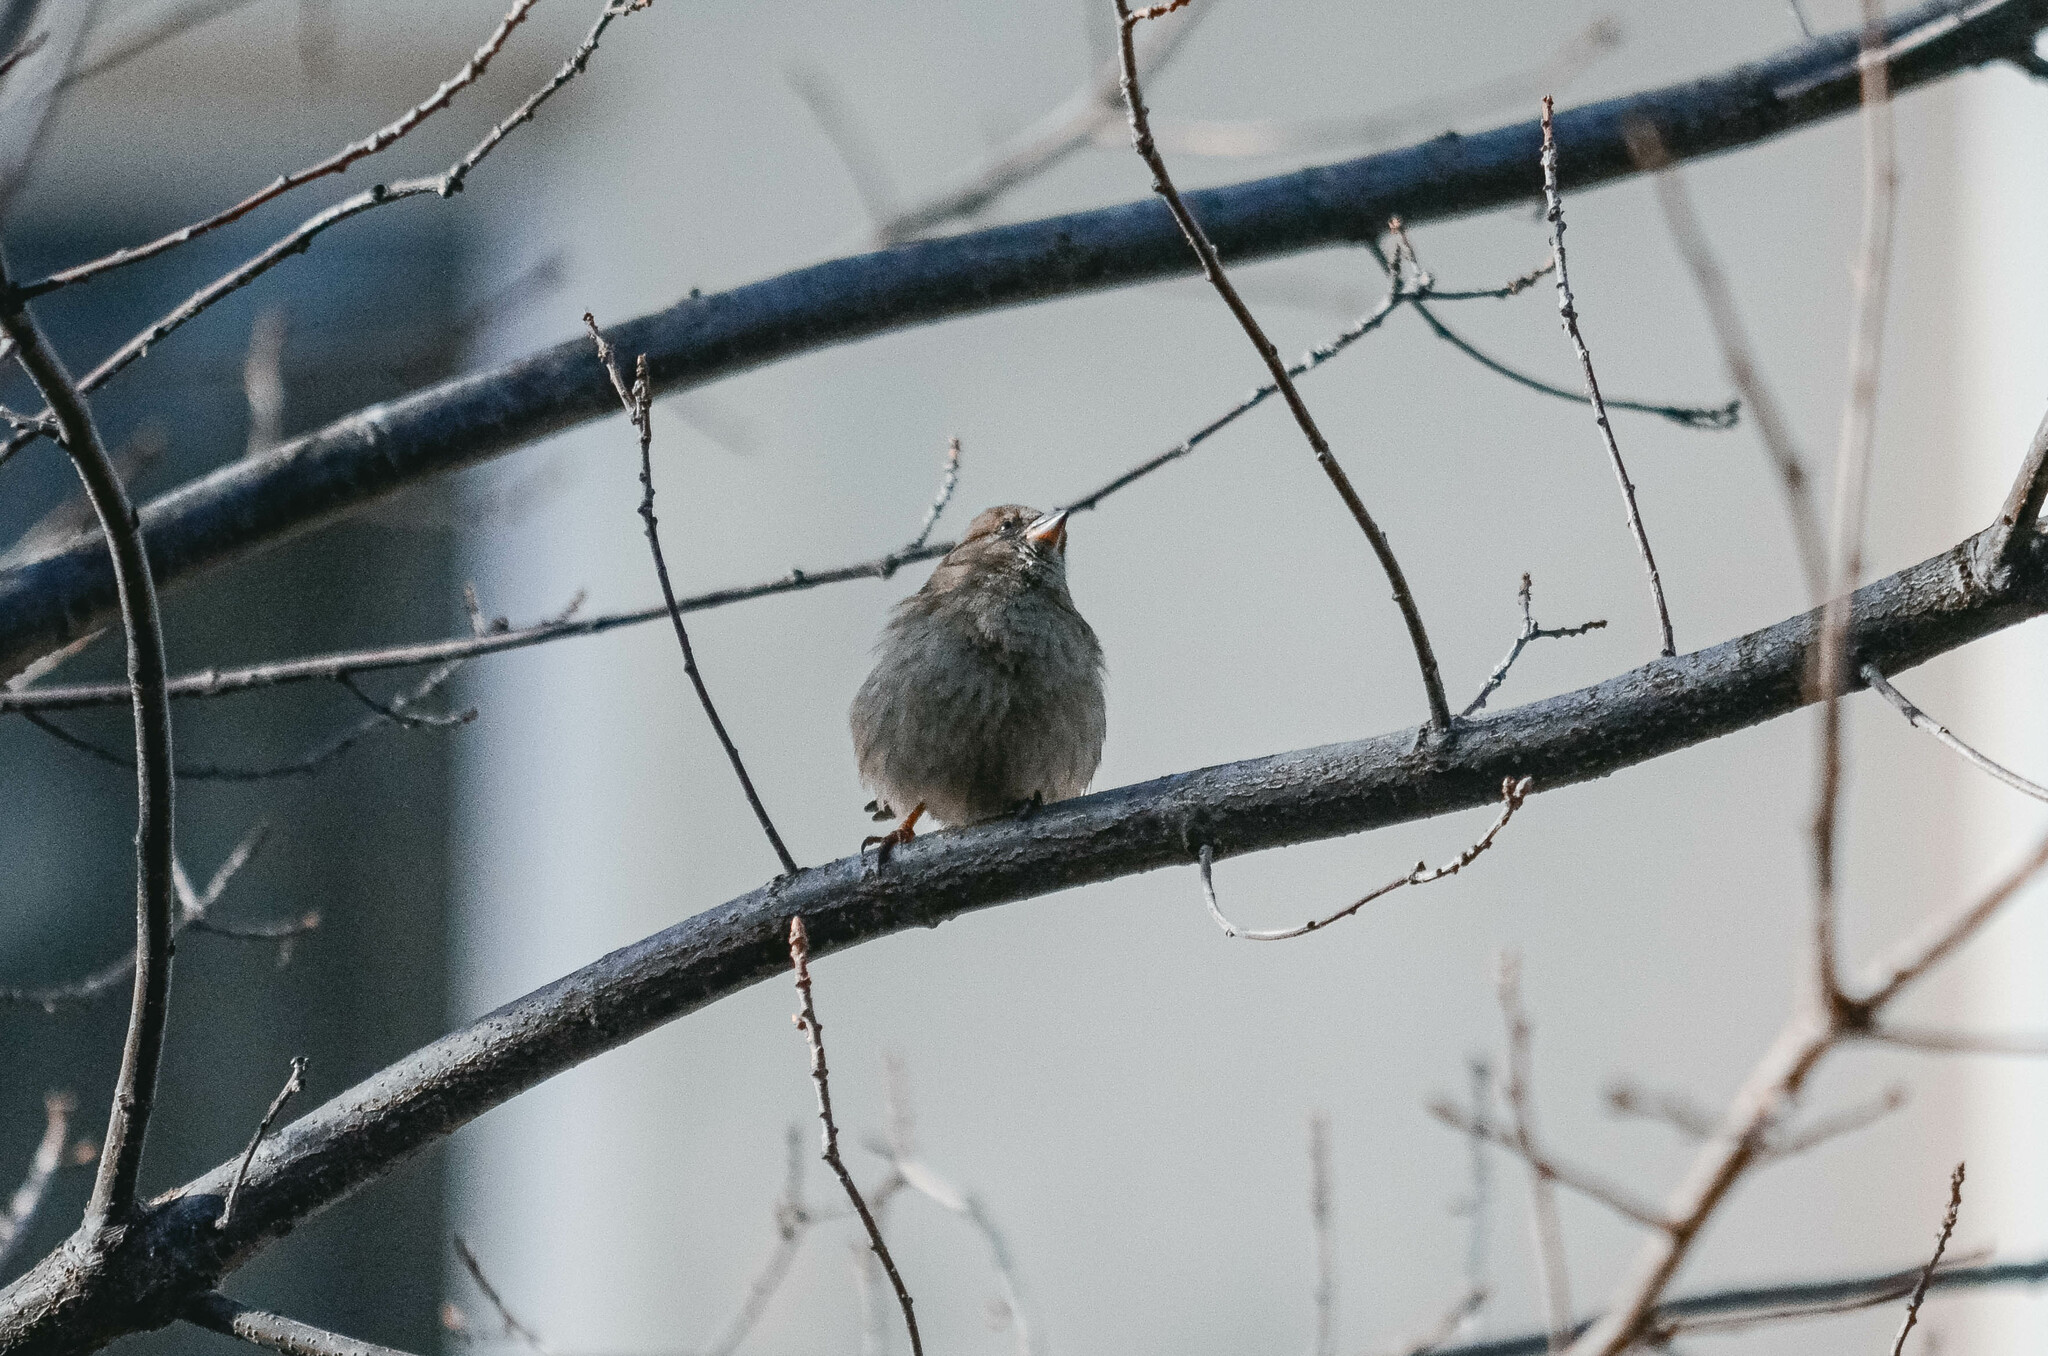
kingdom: Animalia
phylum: Chordata
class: Aves
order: Passeriformes
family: Passeridae
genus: Passer
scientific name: Passer domesticus
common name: House sparrow
